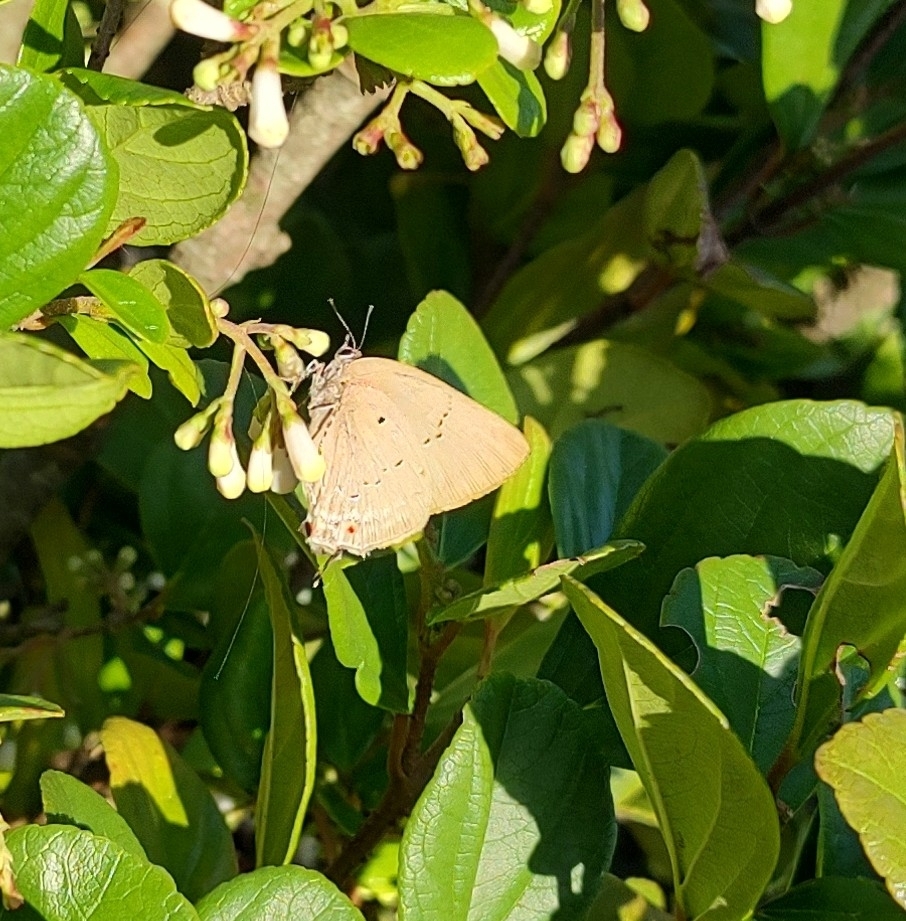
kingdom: Animalia
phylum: Arthropoda
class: Insecta
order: Lepidoptera
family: Lycaenidae
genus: Parrhasius
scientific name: Parrhasius polibetes
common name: Black-spot hairstreak
